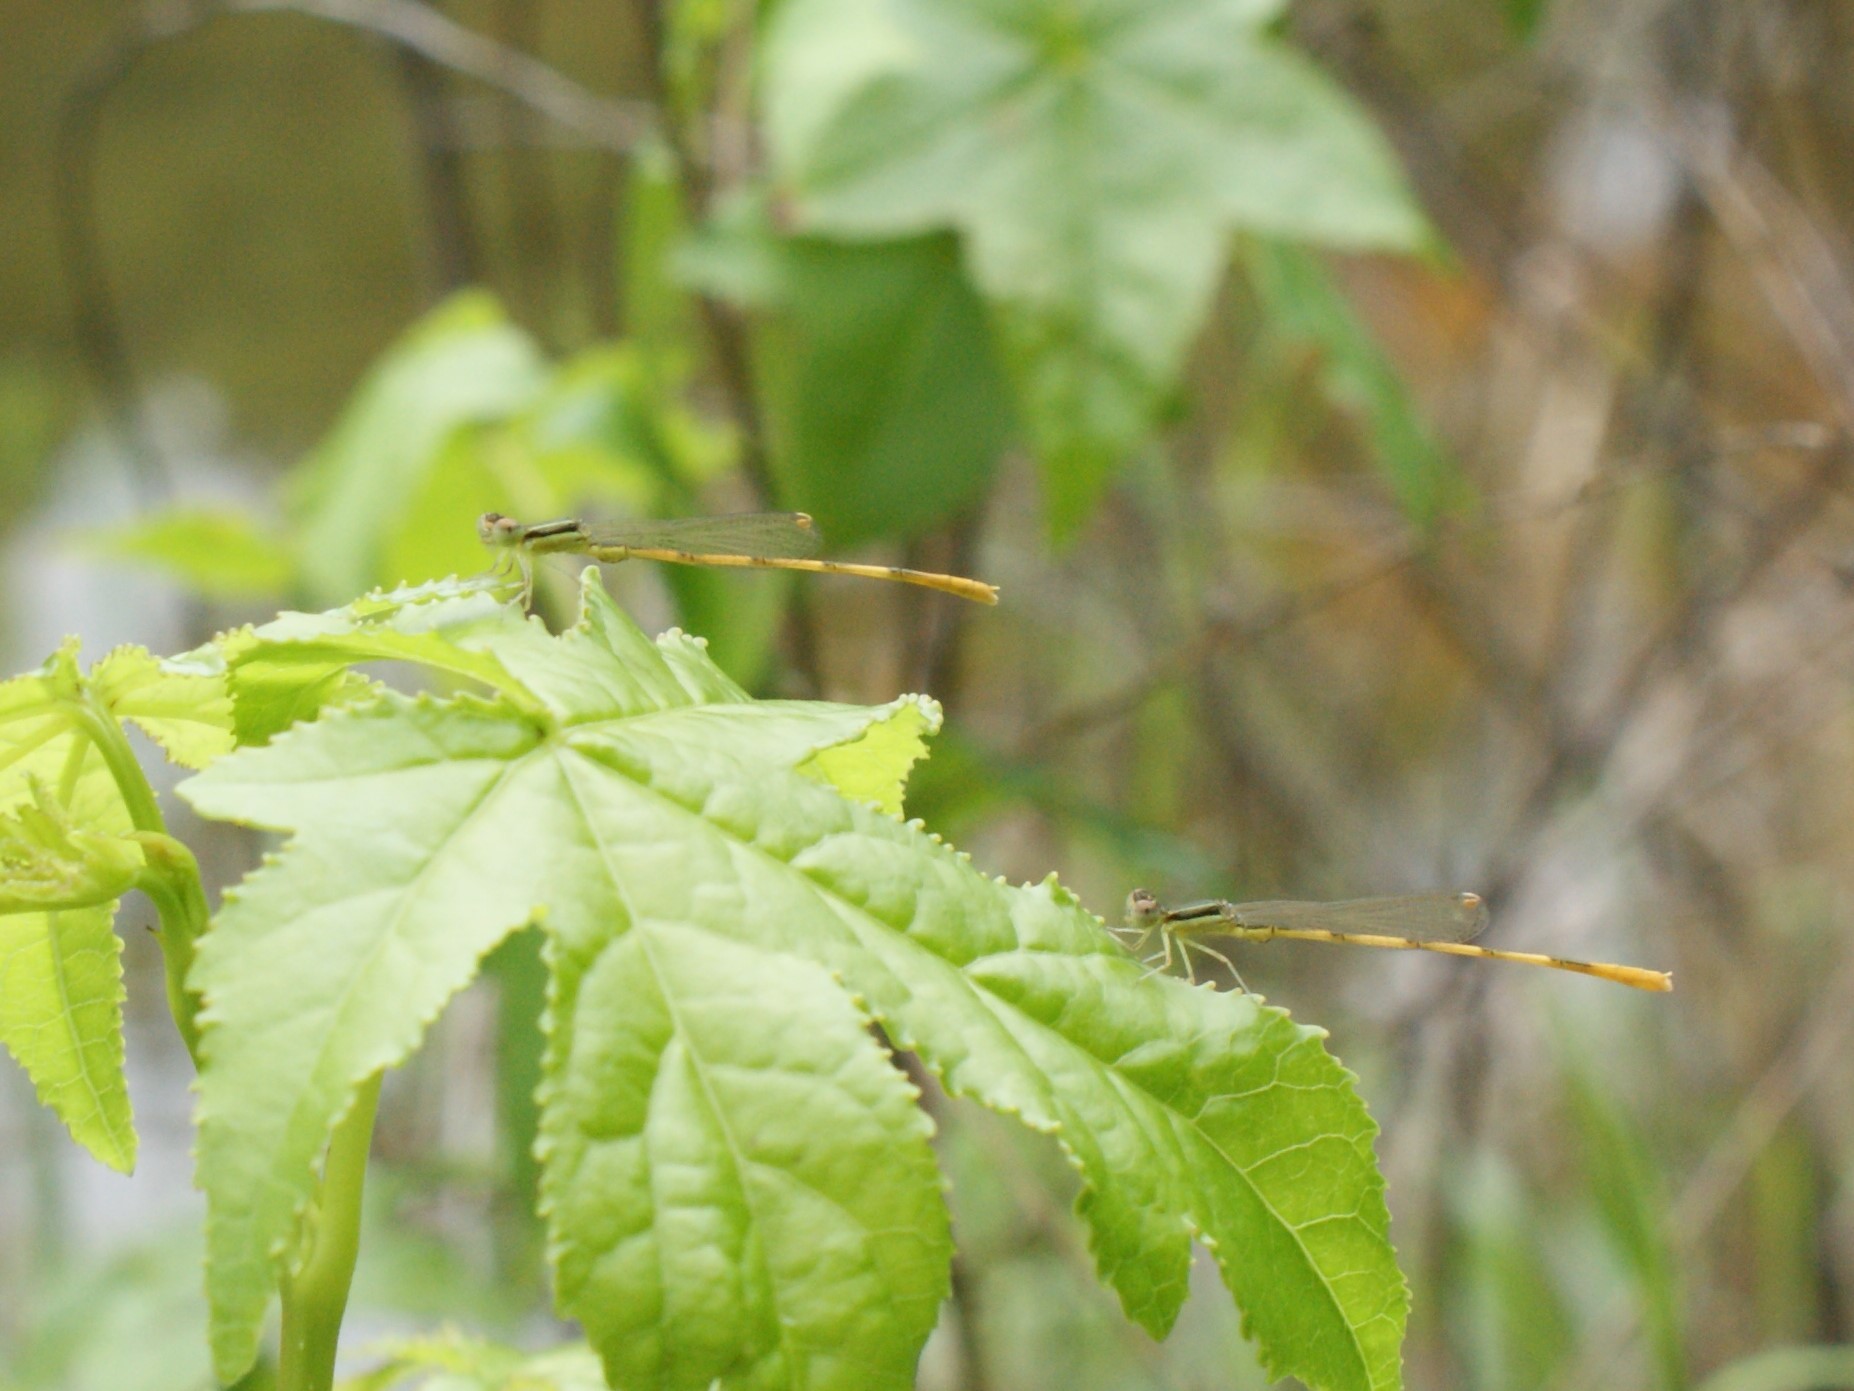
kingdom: Animalia
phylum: Arthropoda
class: Insecta
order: Odonata
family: Coenagrionidae
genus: Ischnura
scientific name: Ischnura hastata
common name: Citrine forktail
